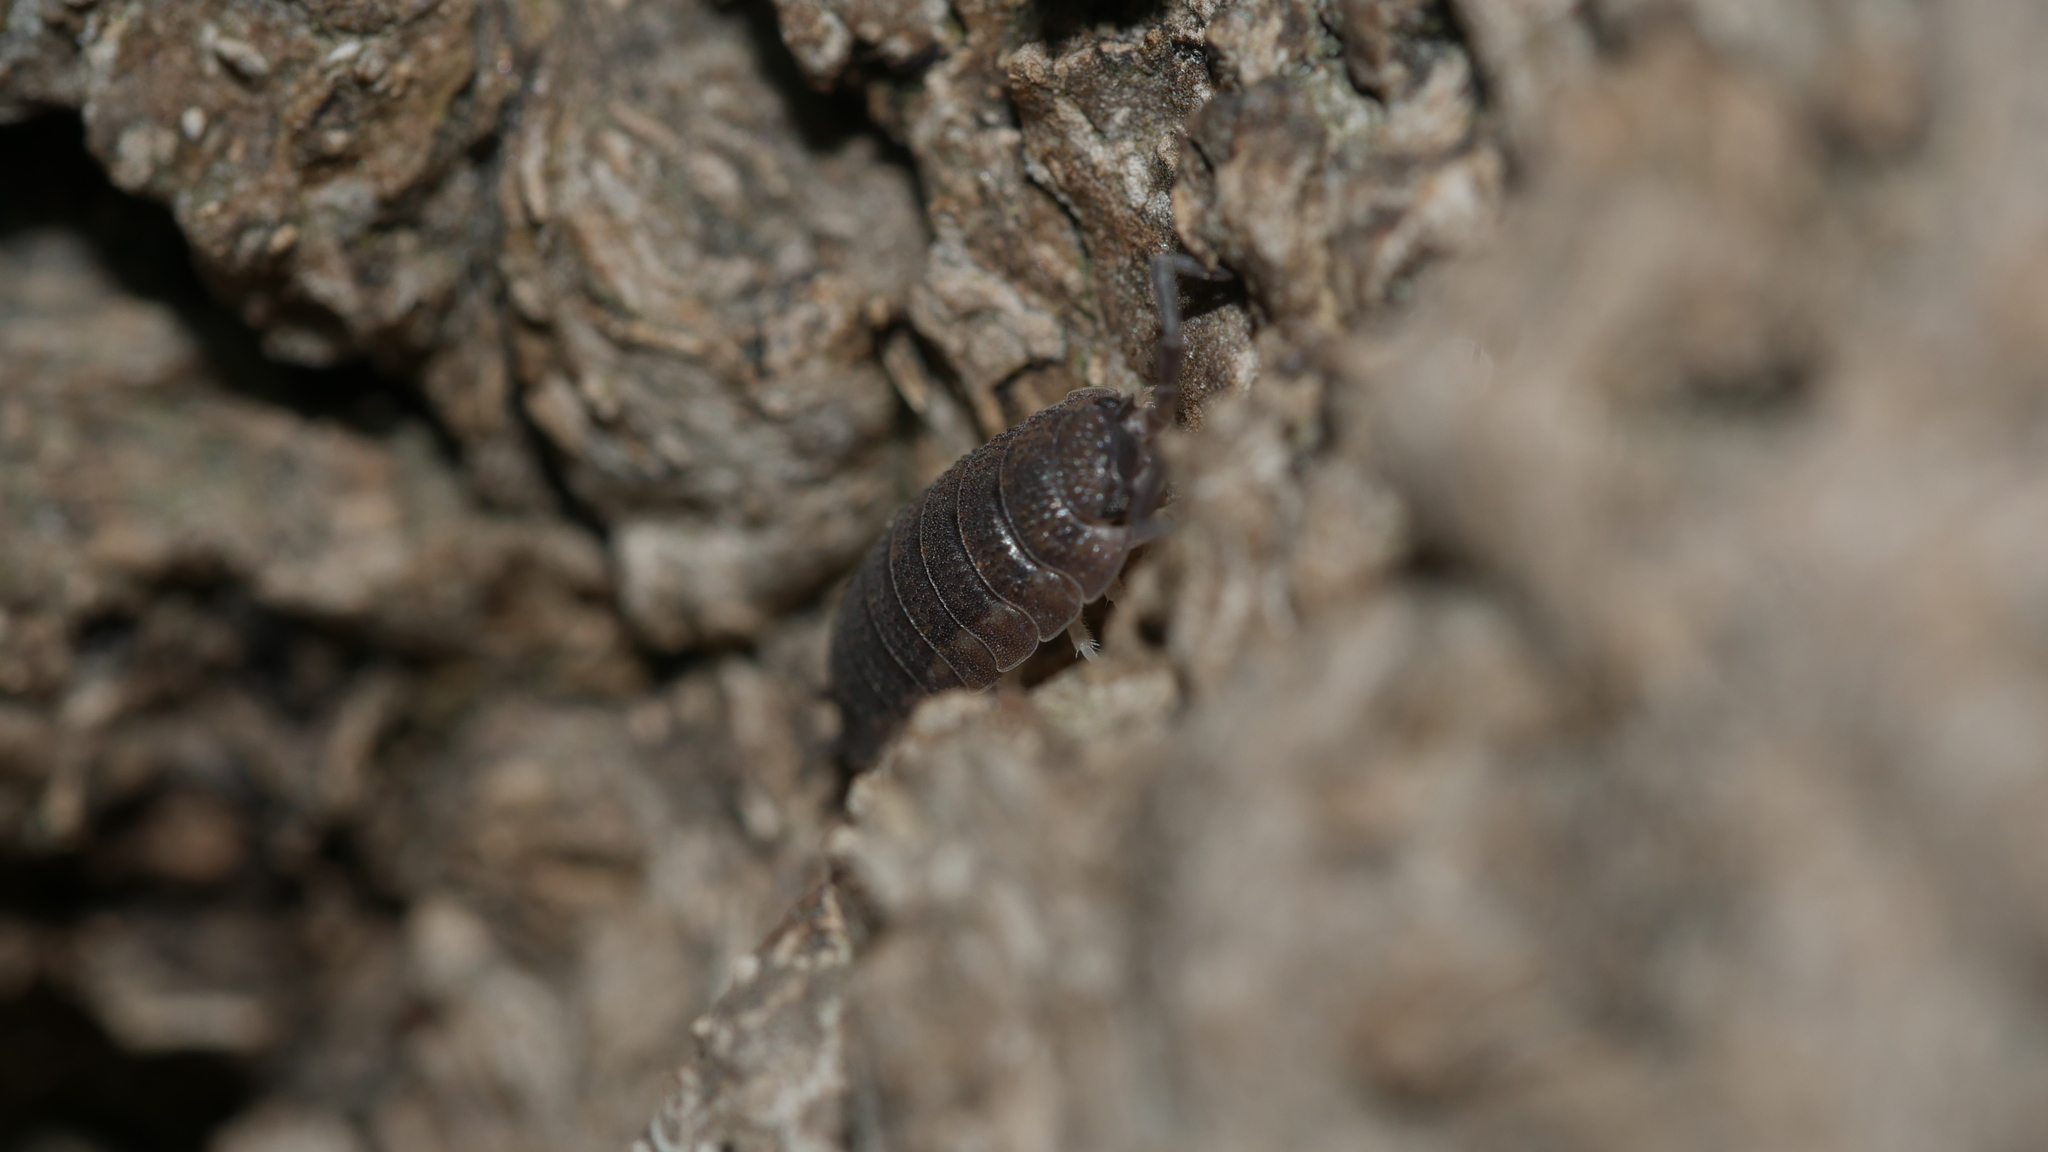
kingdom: Animalia
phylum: Arthropoda
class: Malacostraca
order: Isopoda
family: Porcellionidae
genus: Porcellio
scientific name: Porcellio scaber
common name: Common rough woodlouse
